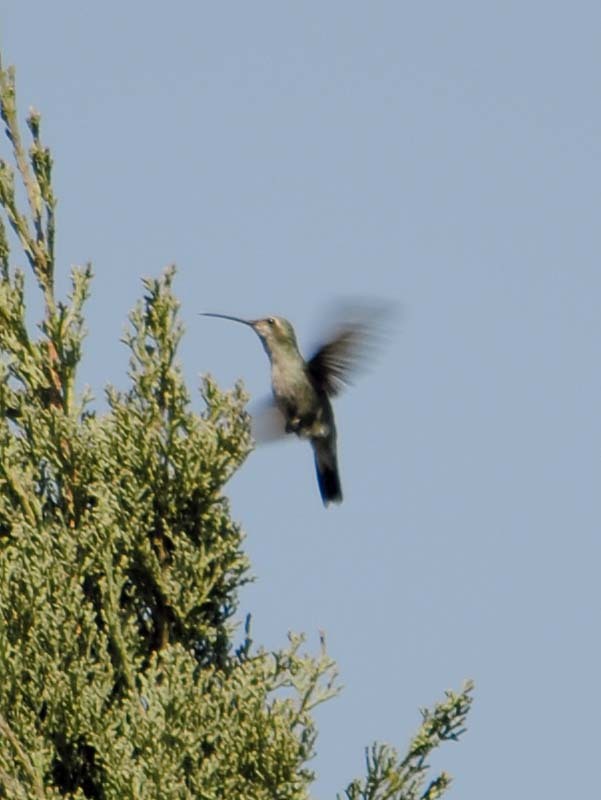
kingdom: Animalia
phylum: Chordata
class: Aves
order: Apodiformes
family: Trochilidae
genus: Cynanthus
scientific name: Cynanthus latirostris
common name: Broad-billed hummingbird
